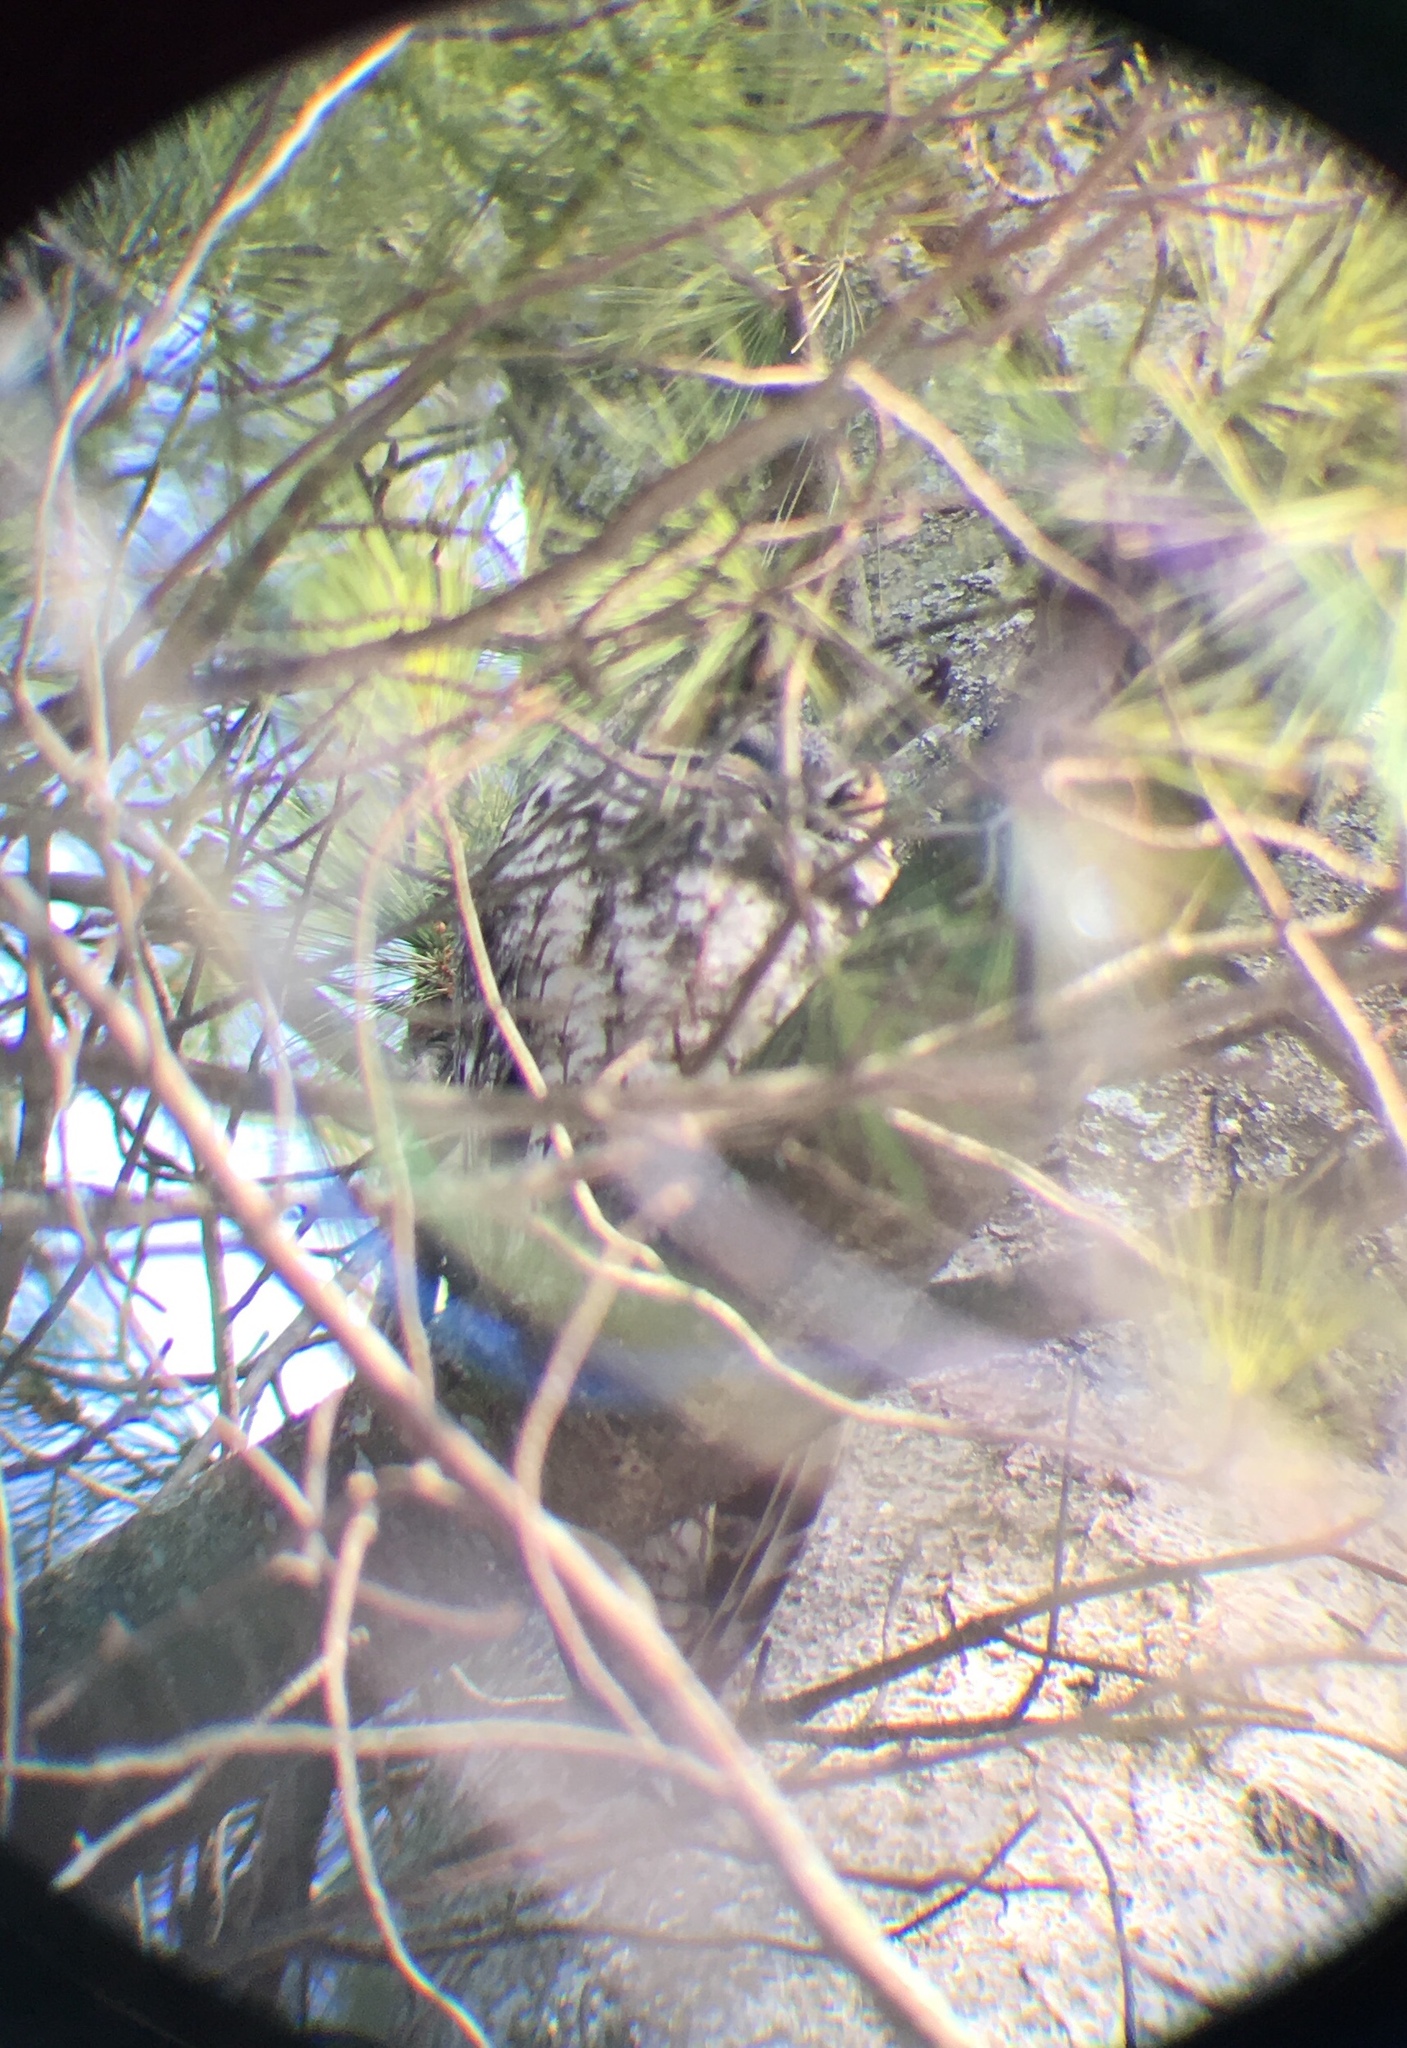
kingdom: Animalia
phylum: Chordata
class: Aves
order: Strigiformes
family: Strigidae
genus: Asio
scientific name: Asio otus
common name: Long-eared owl
